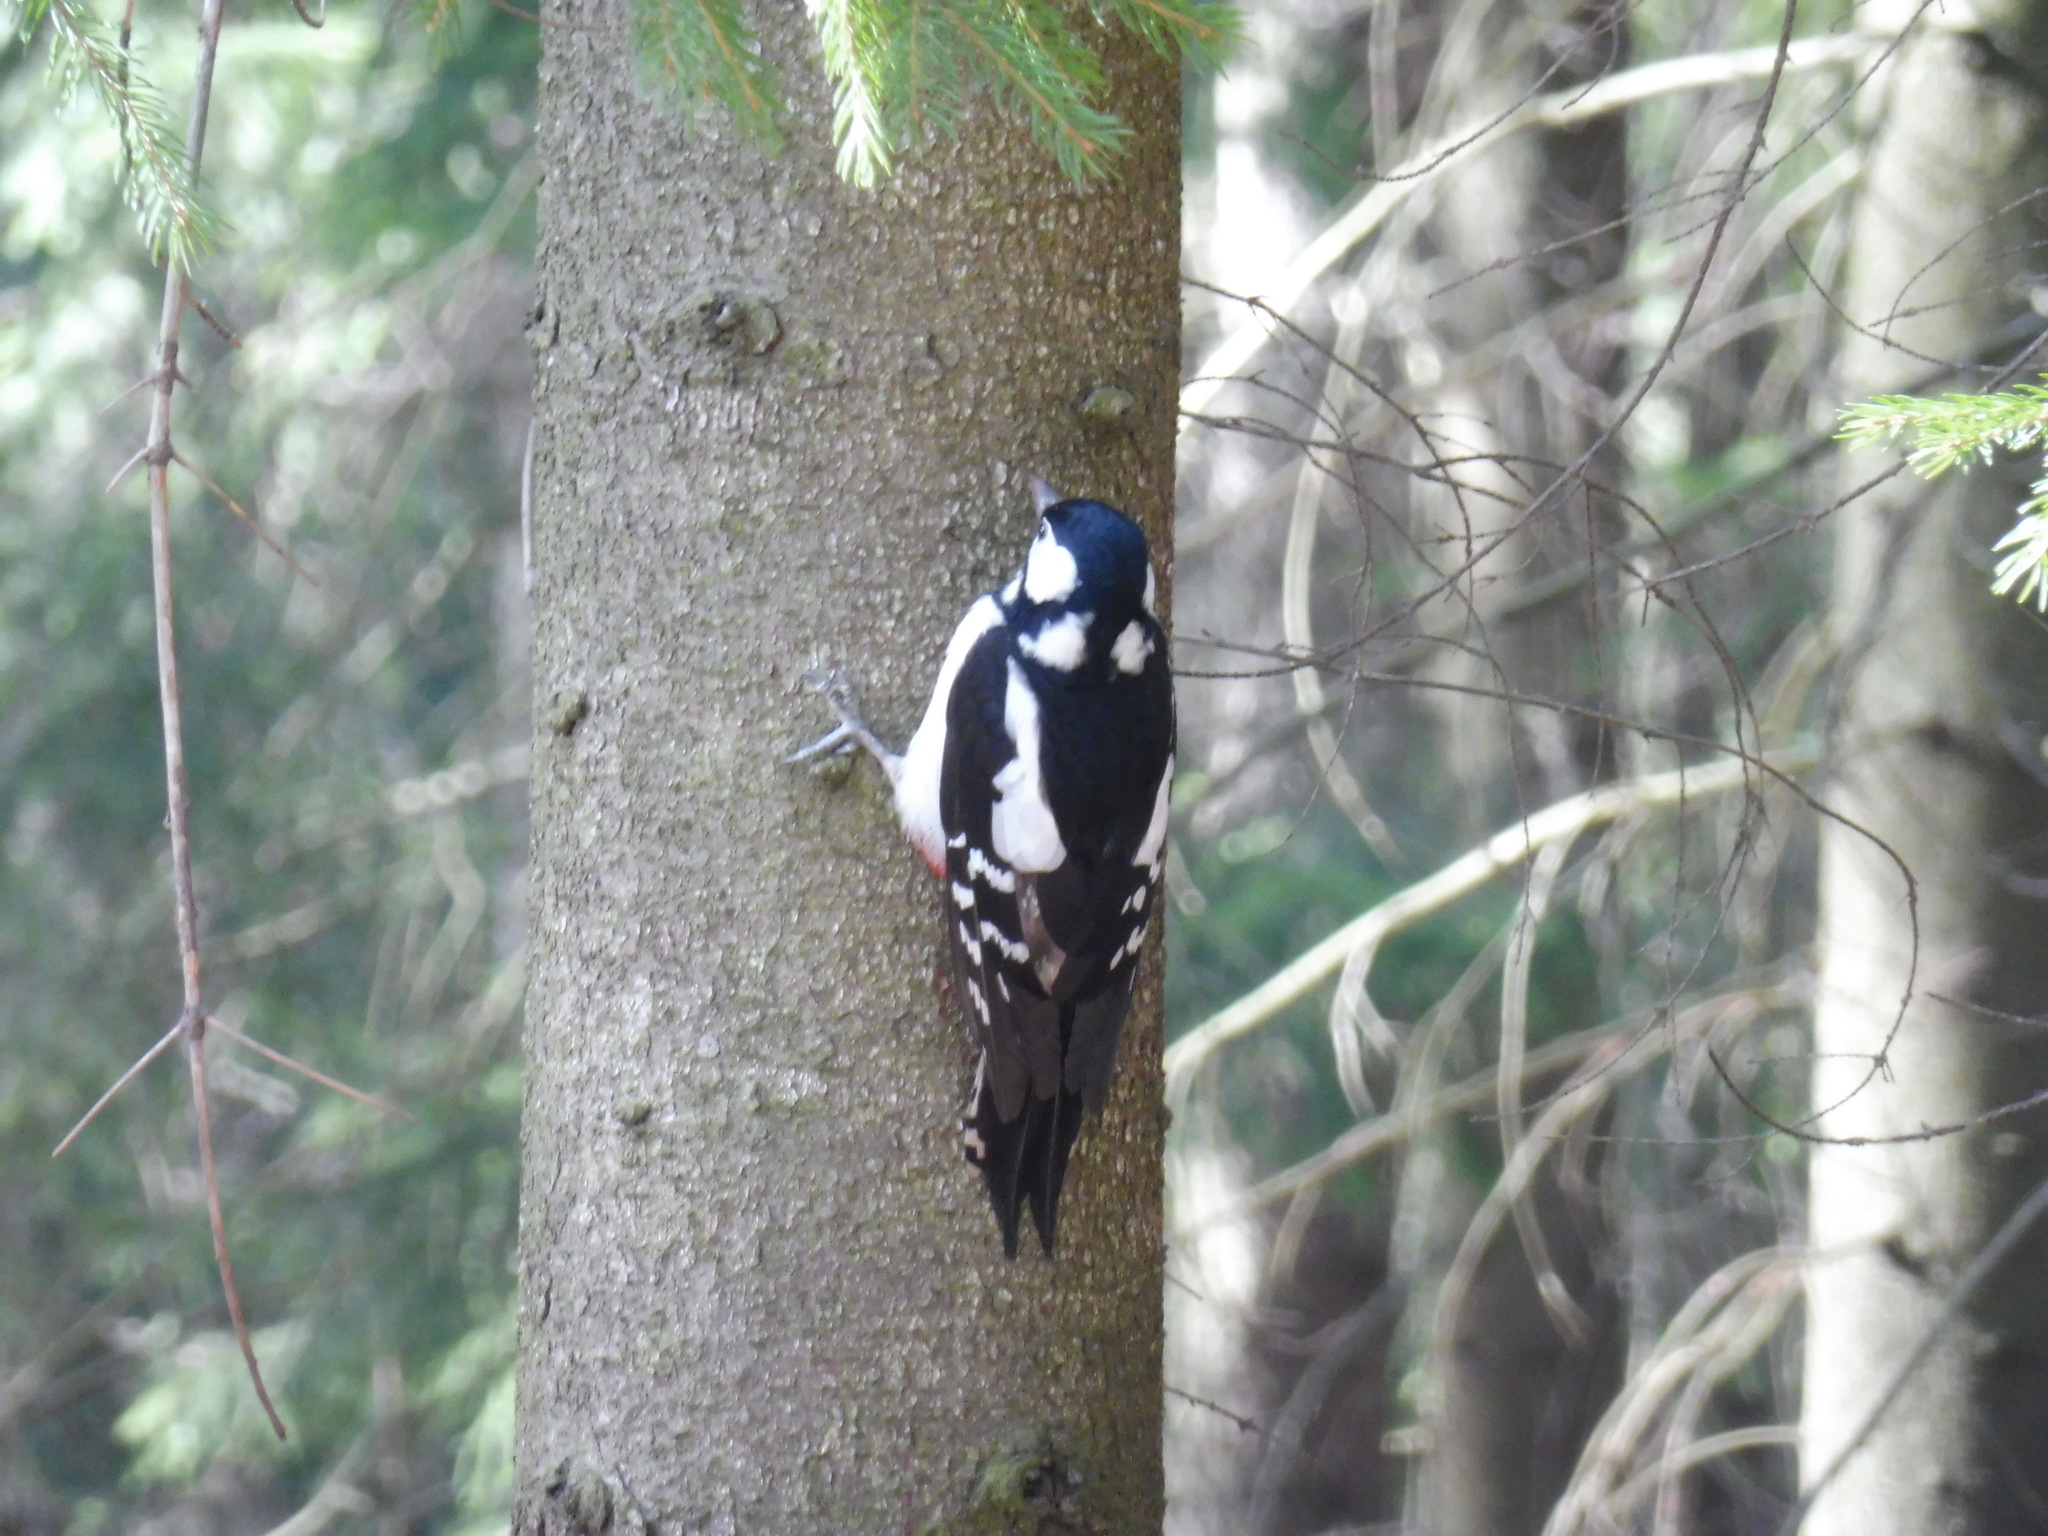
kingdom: Animalia
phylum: Chordata
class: Aves
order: Piciformes
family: Picidae
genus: Dendrocopos
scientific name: Dendrocopos major
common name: Great spotted woodpecker
